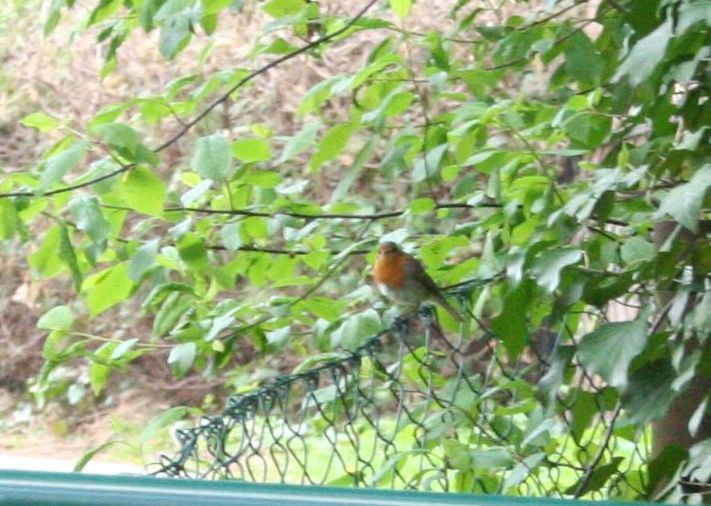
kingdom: Animalia
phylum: Chordata
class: Aves
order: Passeriformes
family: Muscicapidae
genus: Erithacus
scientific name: Erithacus rubecula
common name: European robin
